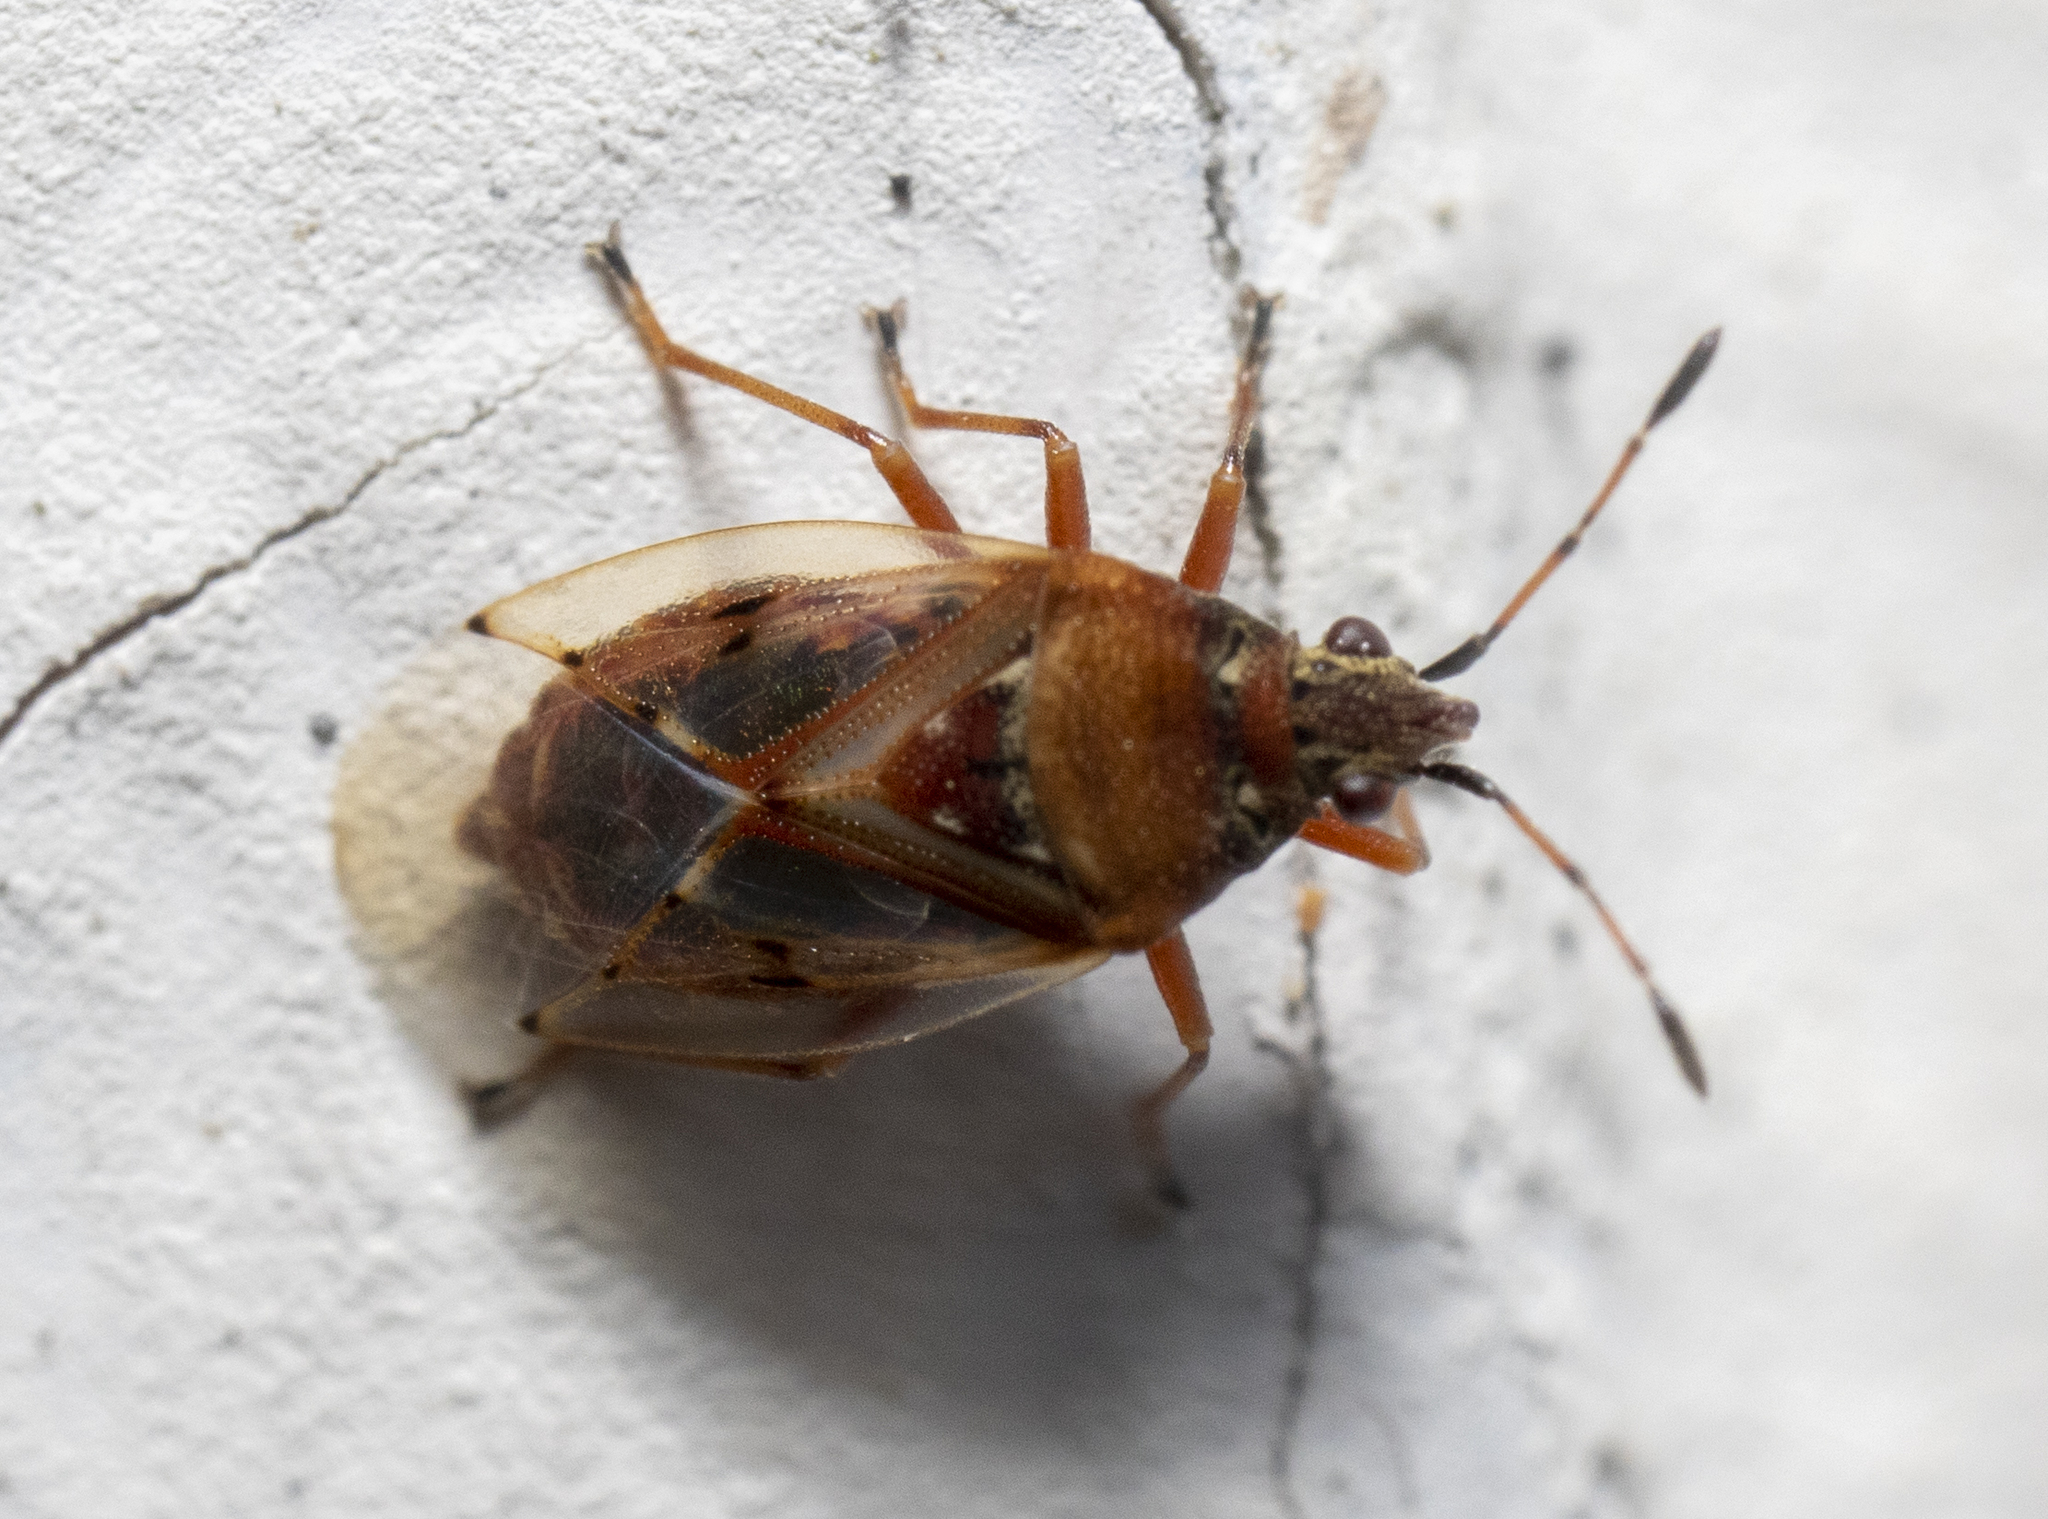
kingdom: Animalia
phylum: Arthropoda
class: Insecta
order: Hemiptera
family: Lygaeidae
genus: Kleidocerys
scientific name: Kleidocerys resedae
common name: Birch catkin bug
